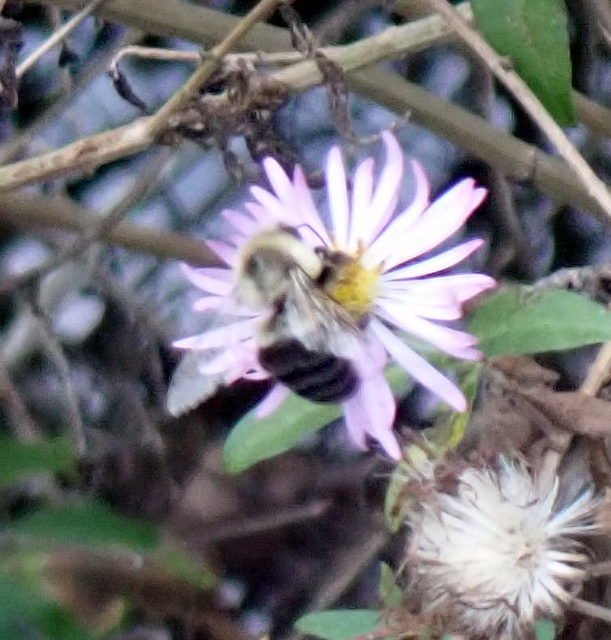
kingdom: Animalia
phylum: Arthropoda
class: Insecta
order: Hymenoptera
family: Apidae
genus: Bombus
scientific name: Bombus impatiens
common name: Common eastern bumble bee
